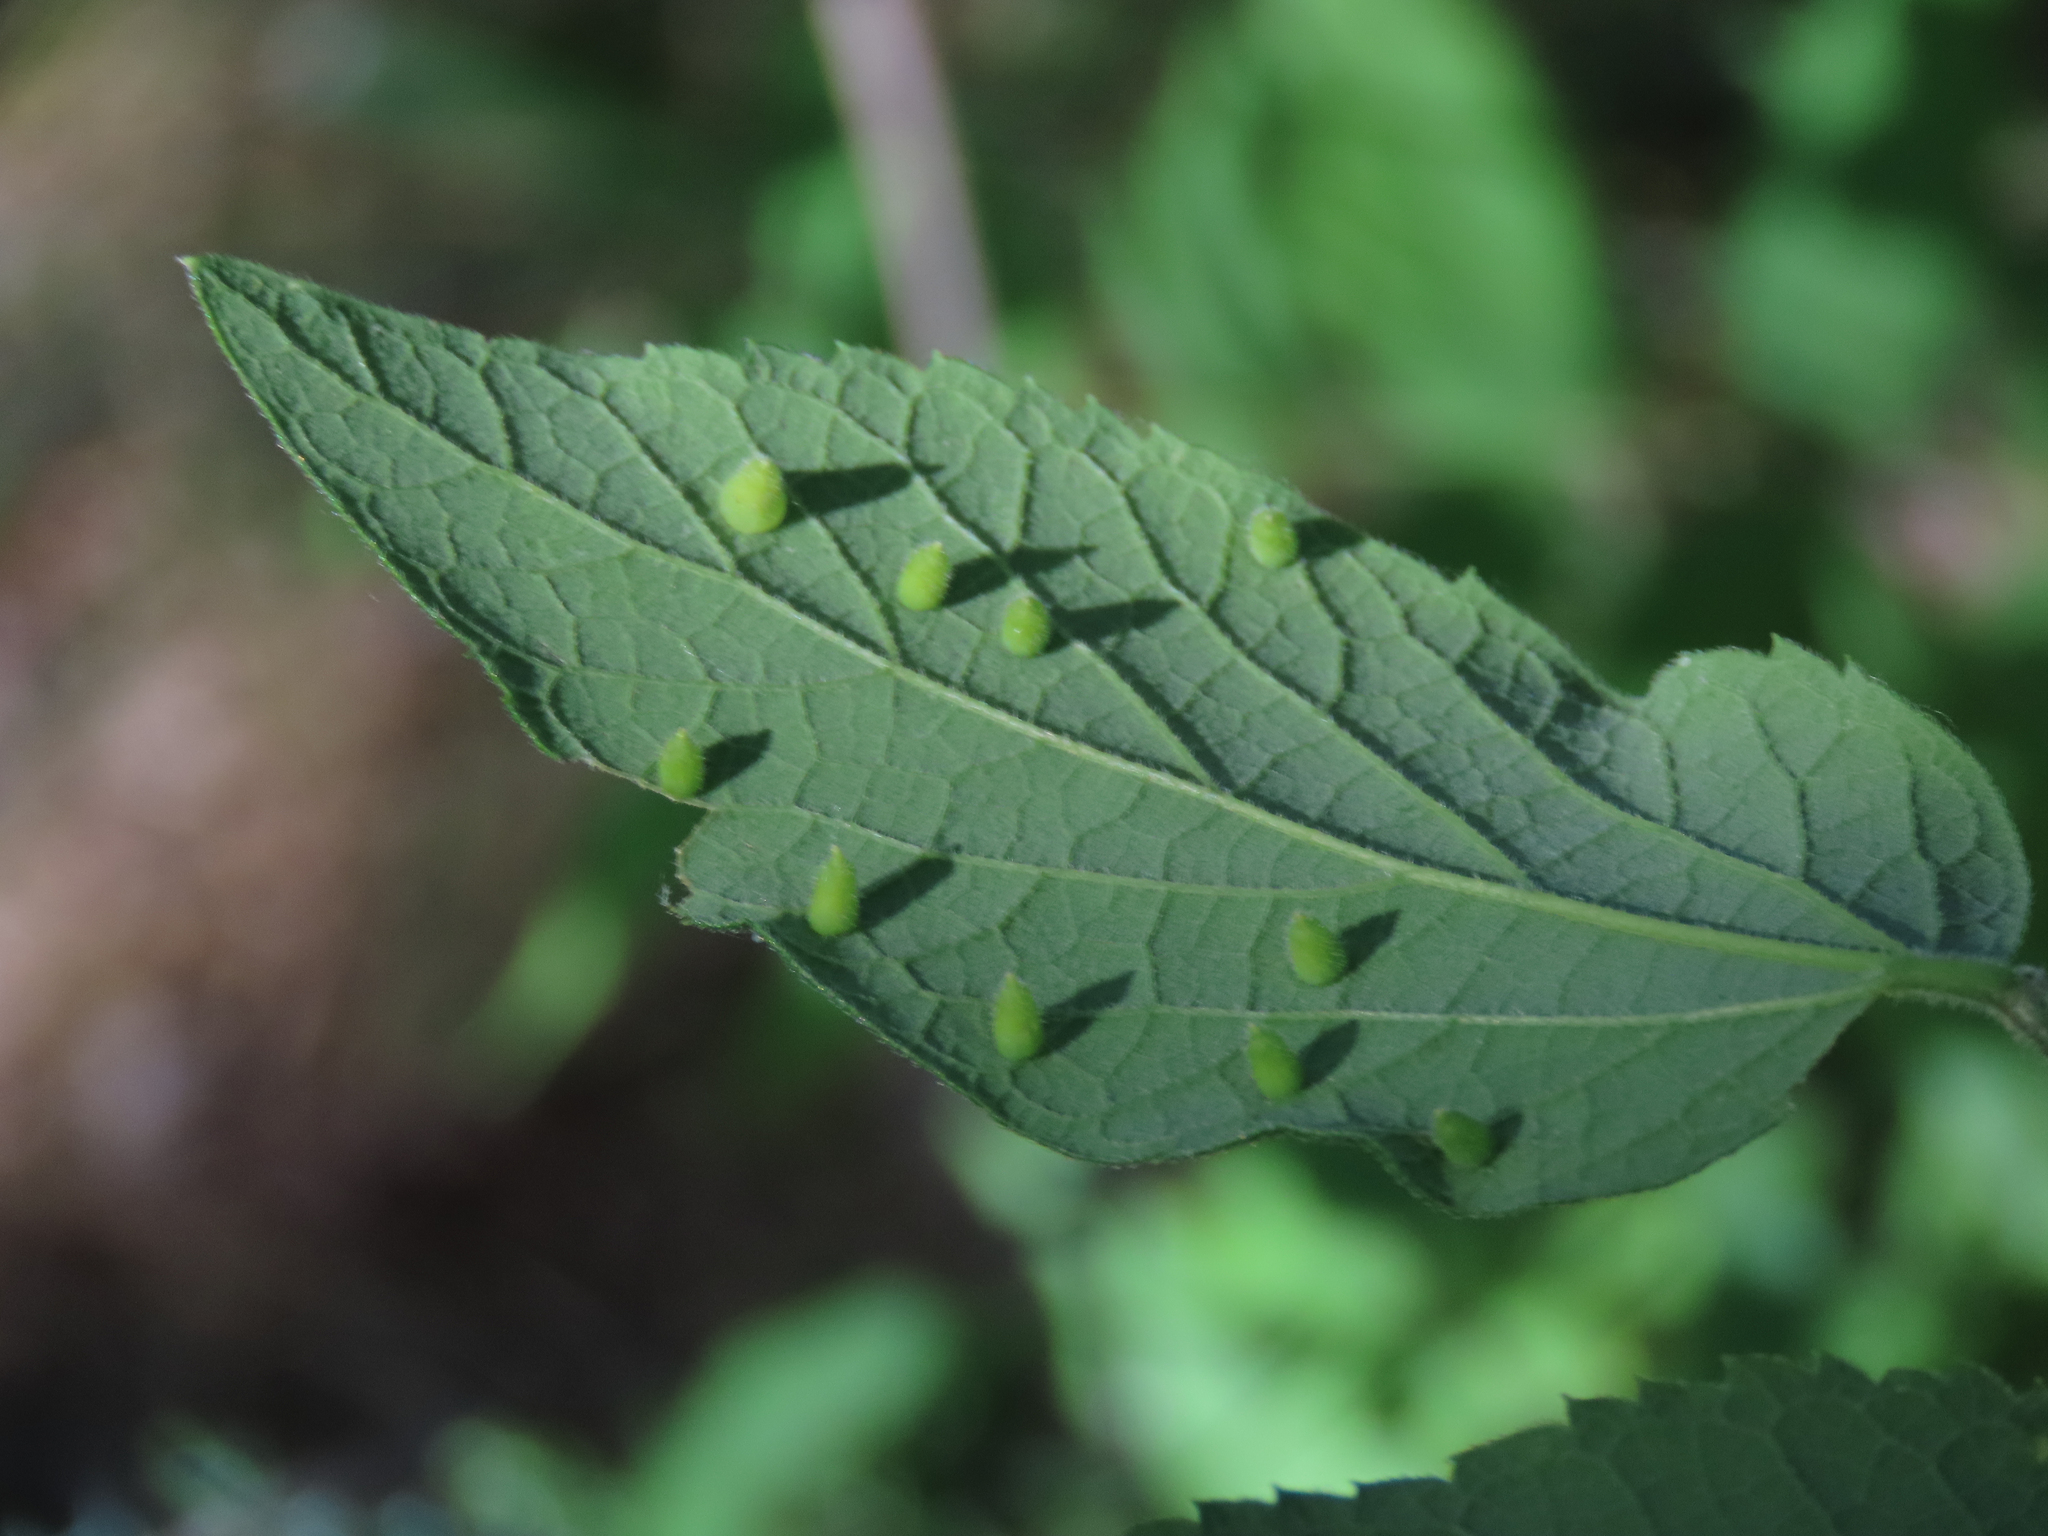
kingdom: Animalia
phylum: Arthropoda
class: Insecta
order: Diptera
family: Cecidomyiidae
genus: Celticecis
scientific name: Celticecis aciculata
